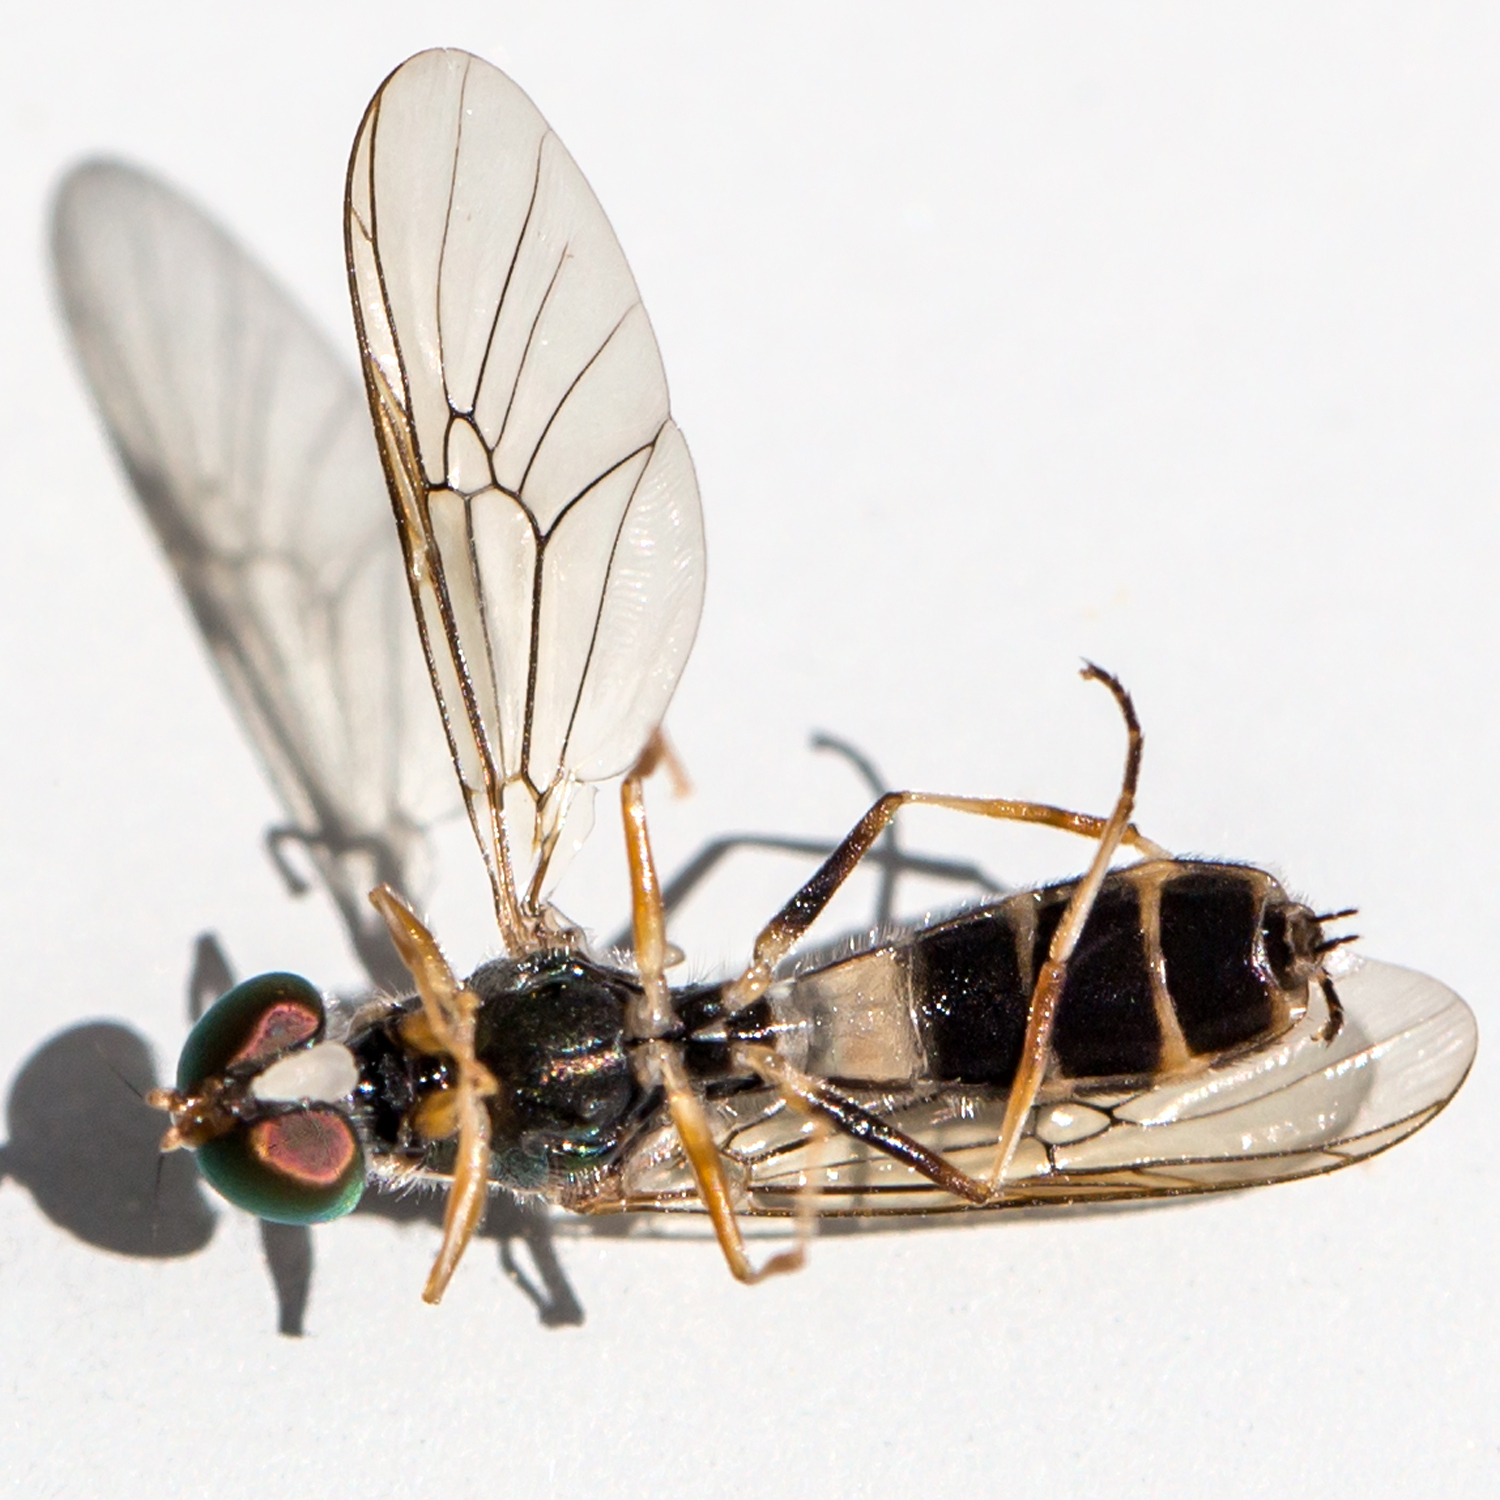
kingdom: Animalia
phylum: Arthropoda
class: Insecta
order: Diptera
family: Stratiomyidae
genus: Sargus
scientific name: Sargus fasciatus
